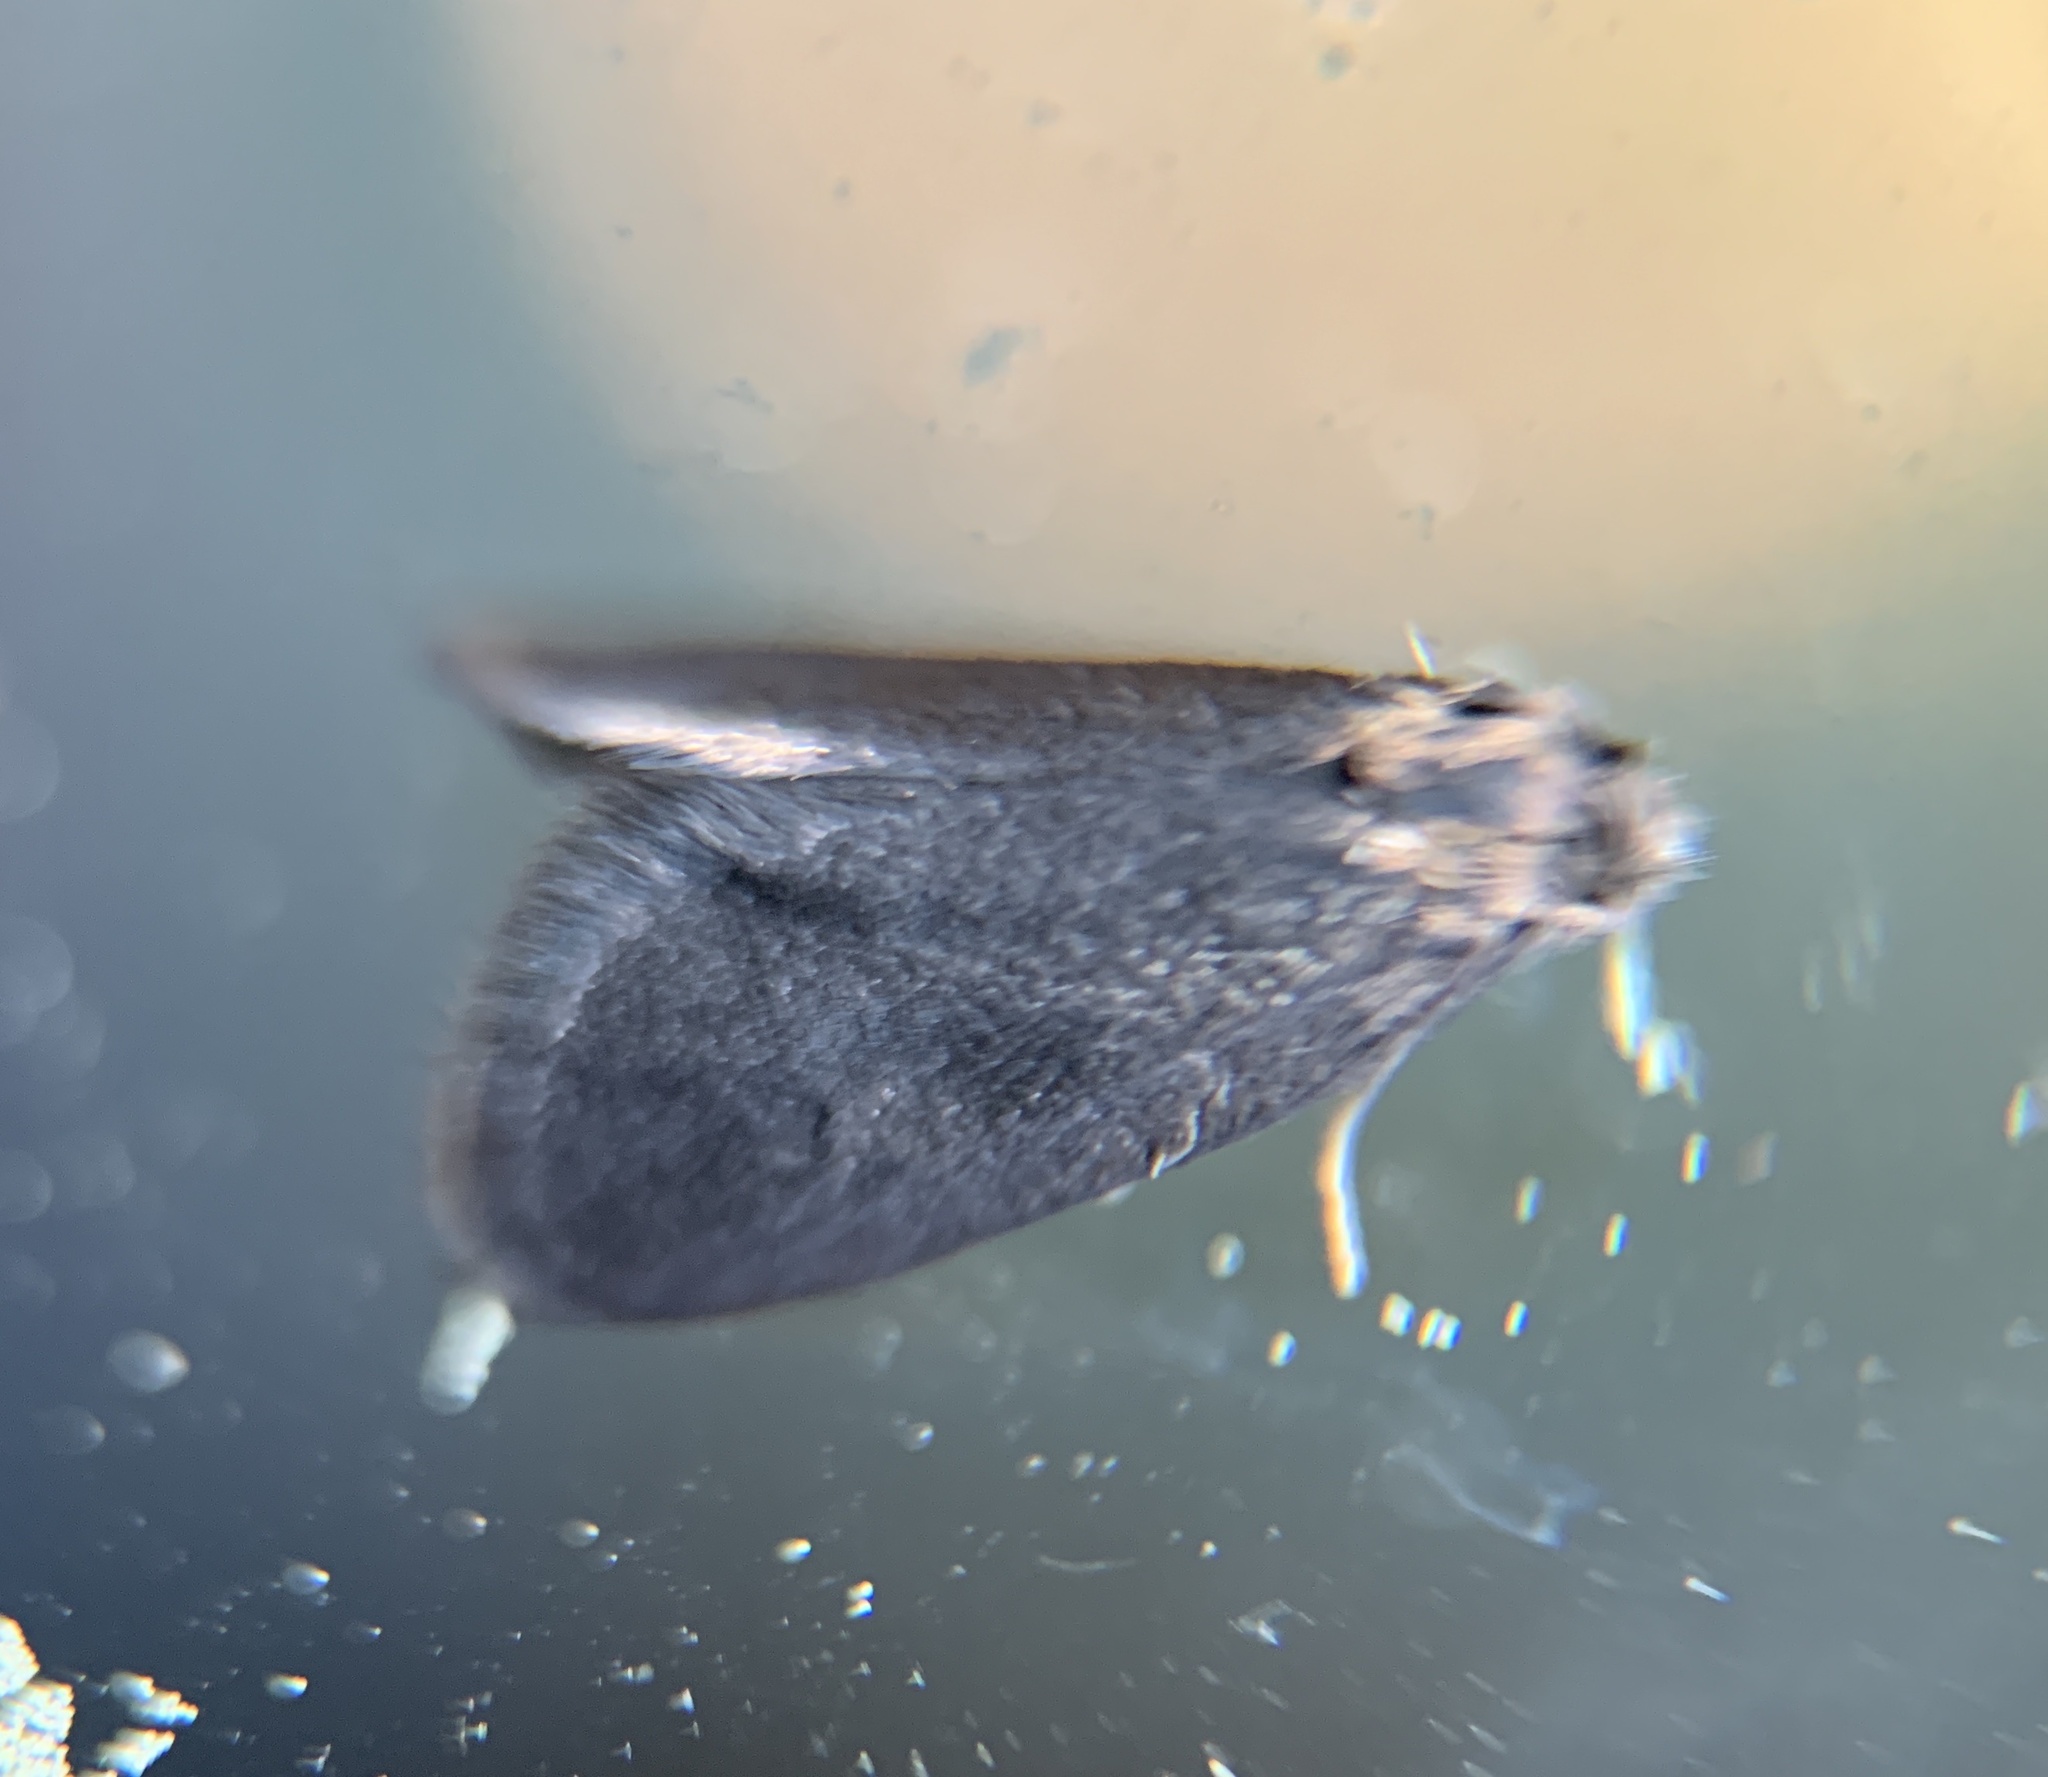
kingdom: Animalia
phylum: Arthropoda
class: Insecta
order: Lepidoptera
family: Psychidae
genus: Psyche
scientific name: Psyche casta
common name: Common sweep
